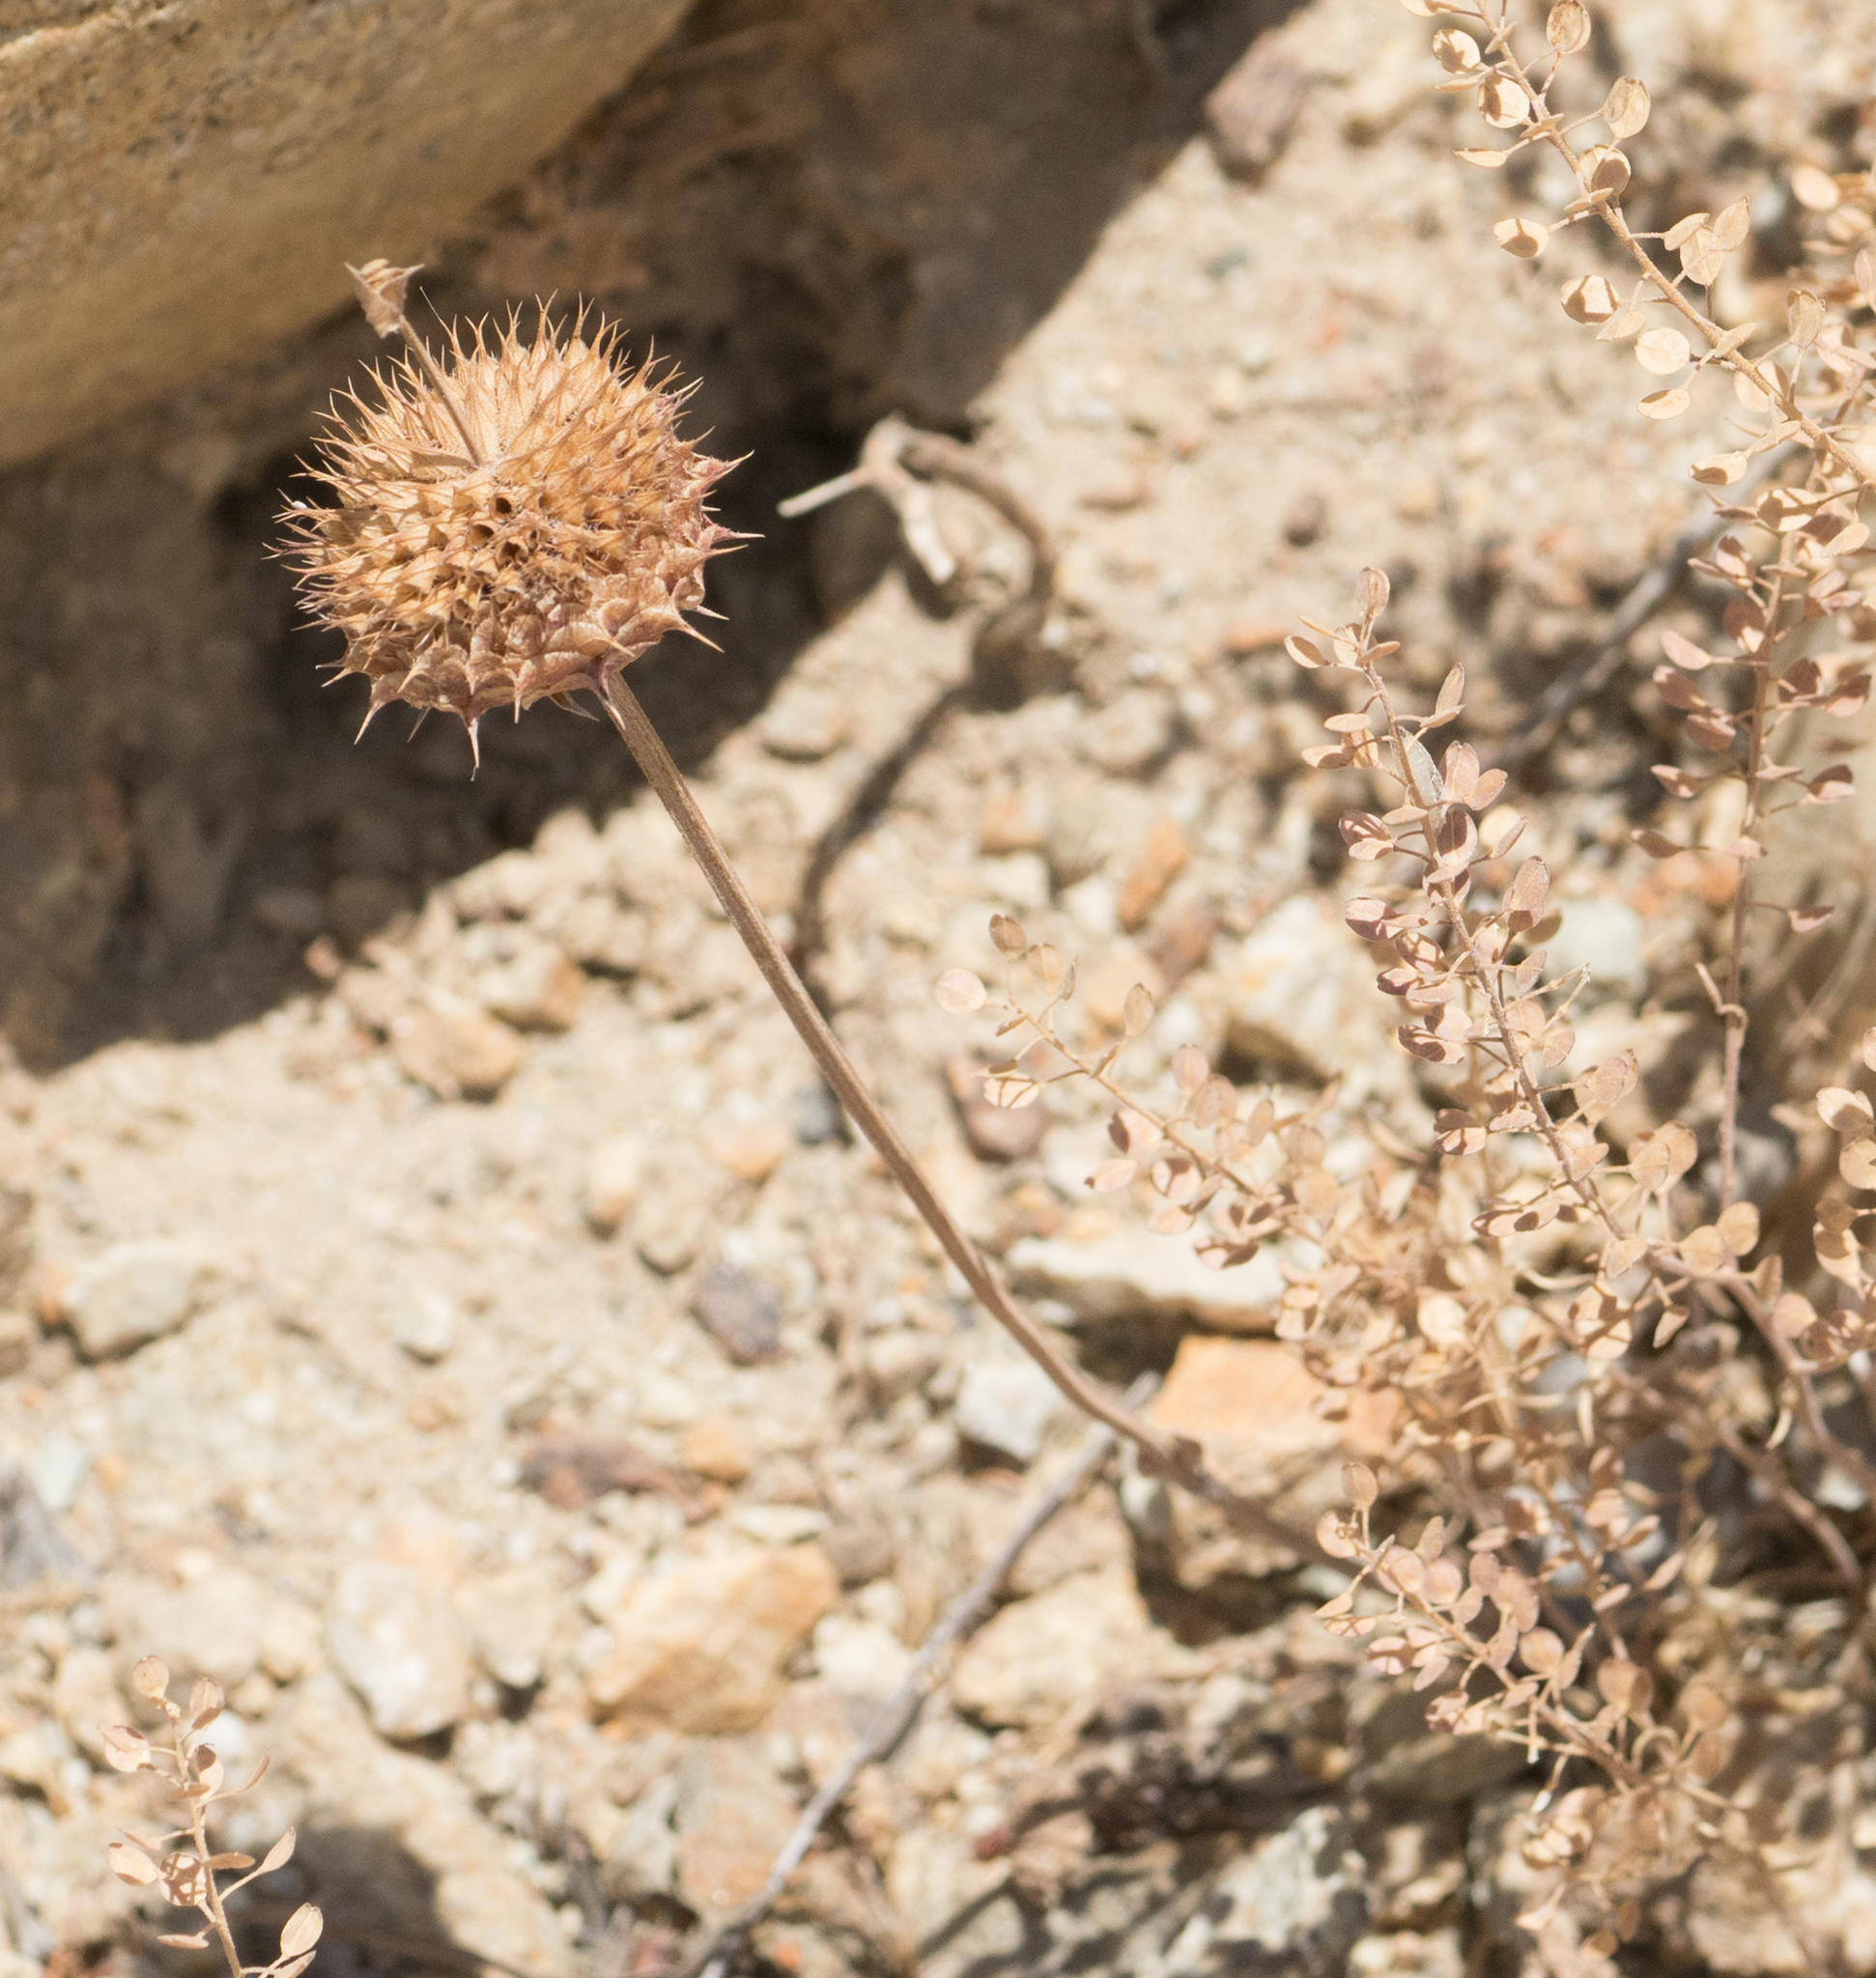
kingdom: Plantae
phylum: Tracheophyta
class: Magnoliopsida
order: Lamiales
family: Lamiaceae
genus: Salvia
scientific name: Salvia columbariae
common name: Chia
